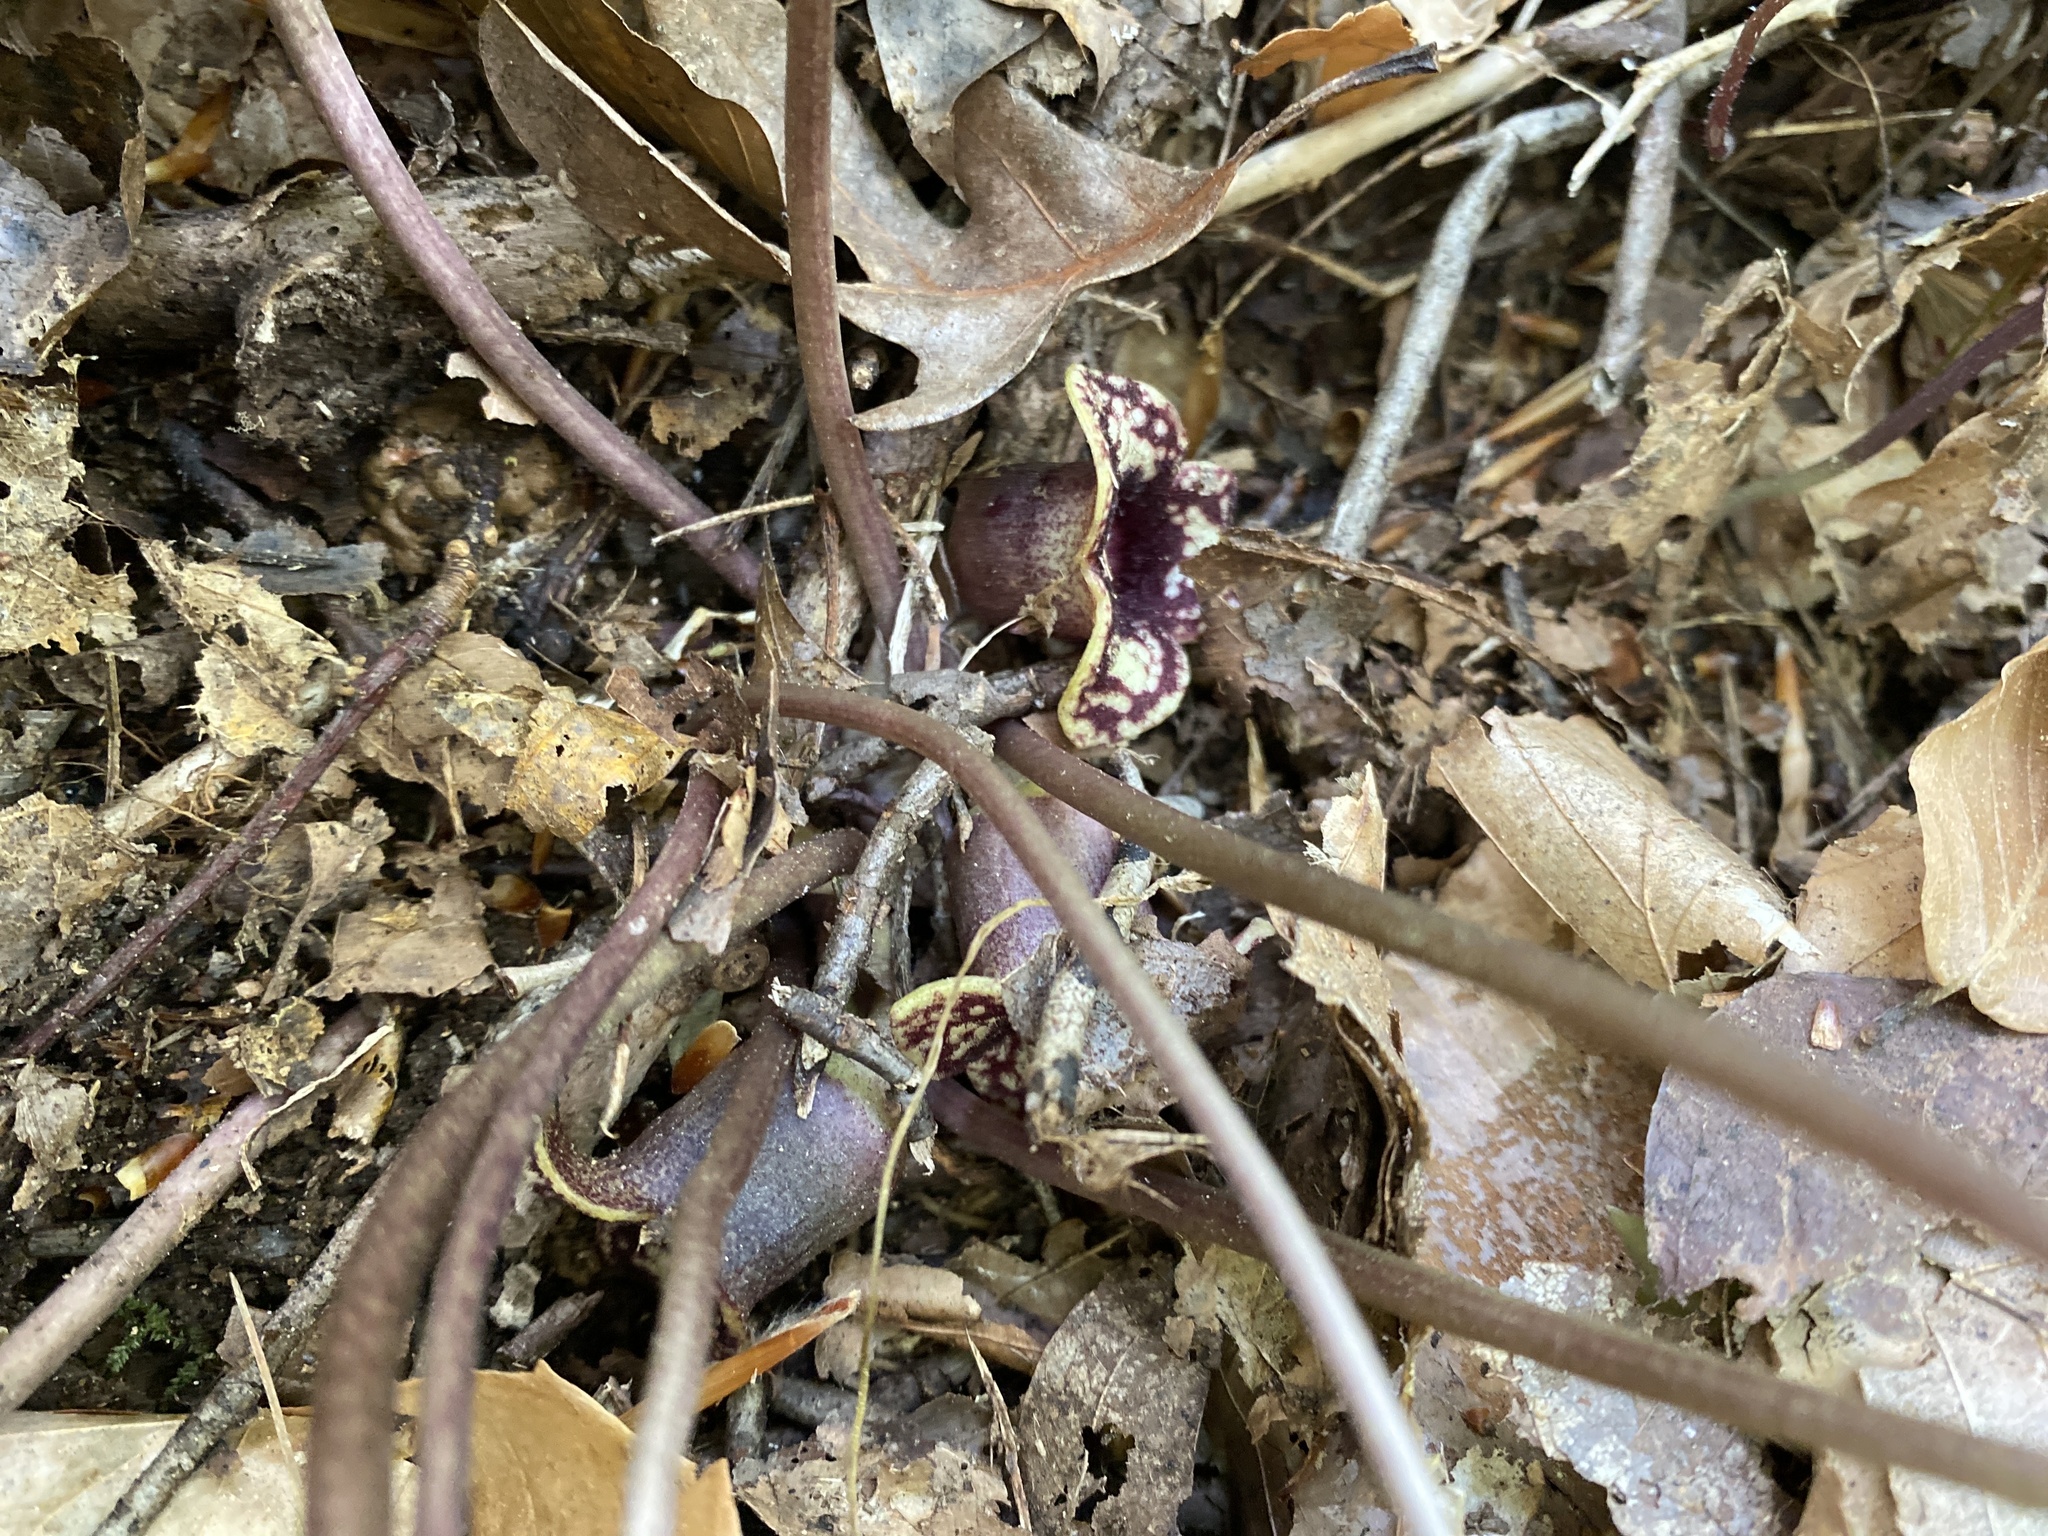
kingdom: Plantae
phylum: Tracheophyta
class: Magnoliopsida
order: Piperales
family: Aristolochiaceae
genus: Hexastylis
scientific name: Hexastylis heterophylla
